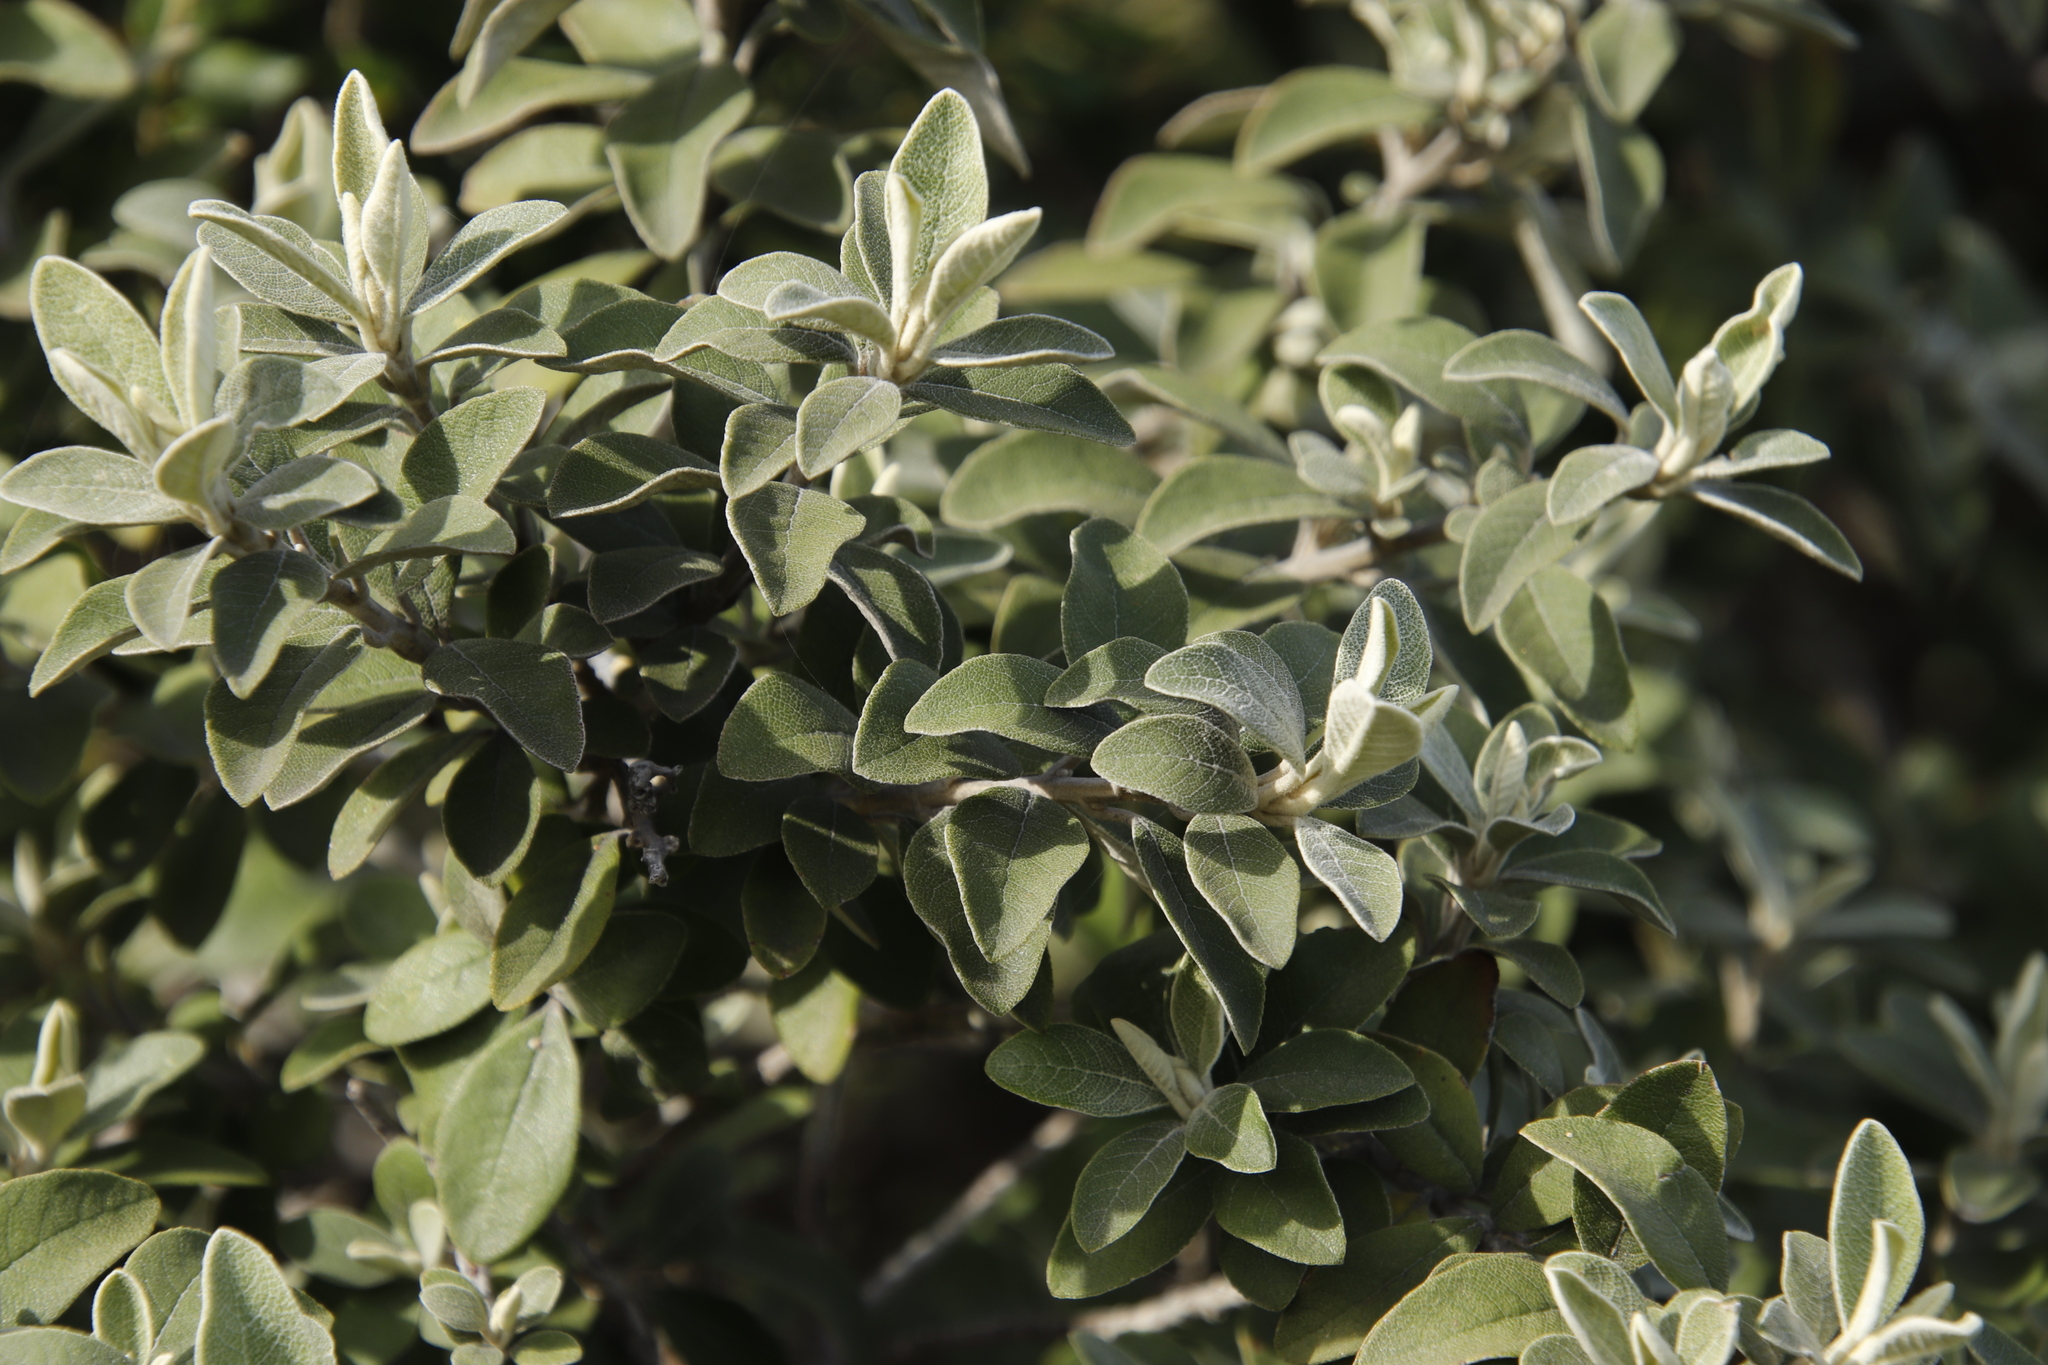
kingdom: Plantae
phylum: Tracheophyta
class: Magnoliopsida
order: Asterales
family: Asteraceae
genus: Tarchonanthus
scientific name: Tarchonanthus littoralis
